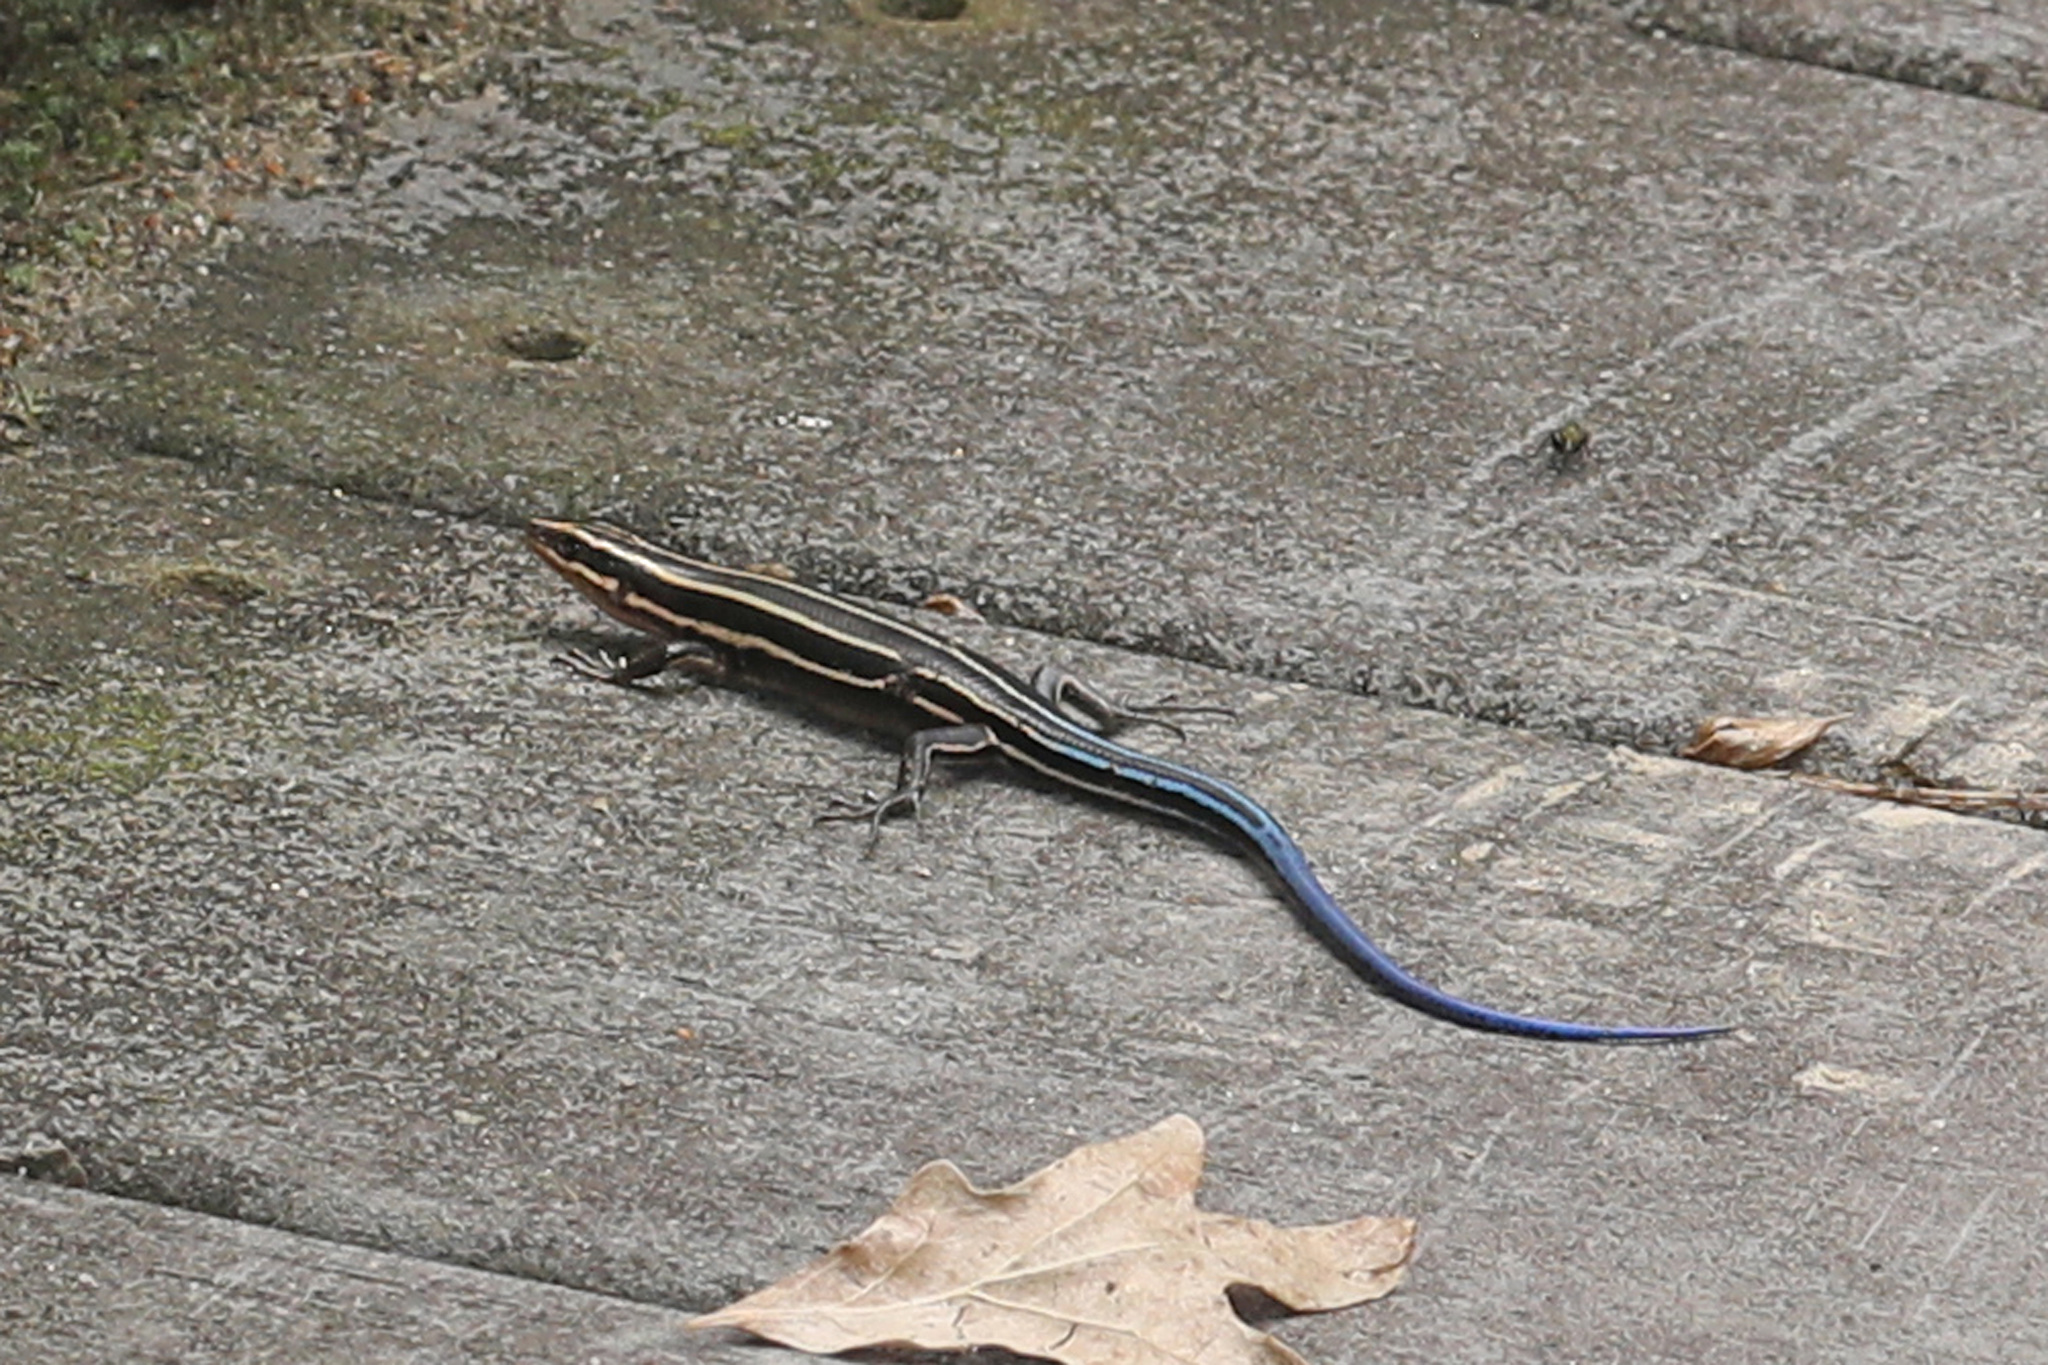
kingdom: Animalia
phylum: Chordata
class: Squamata
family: Scincidae
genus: Plestiodon
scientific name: Plestiodon fasciatus
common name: Five-lined skink
